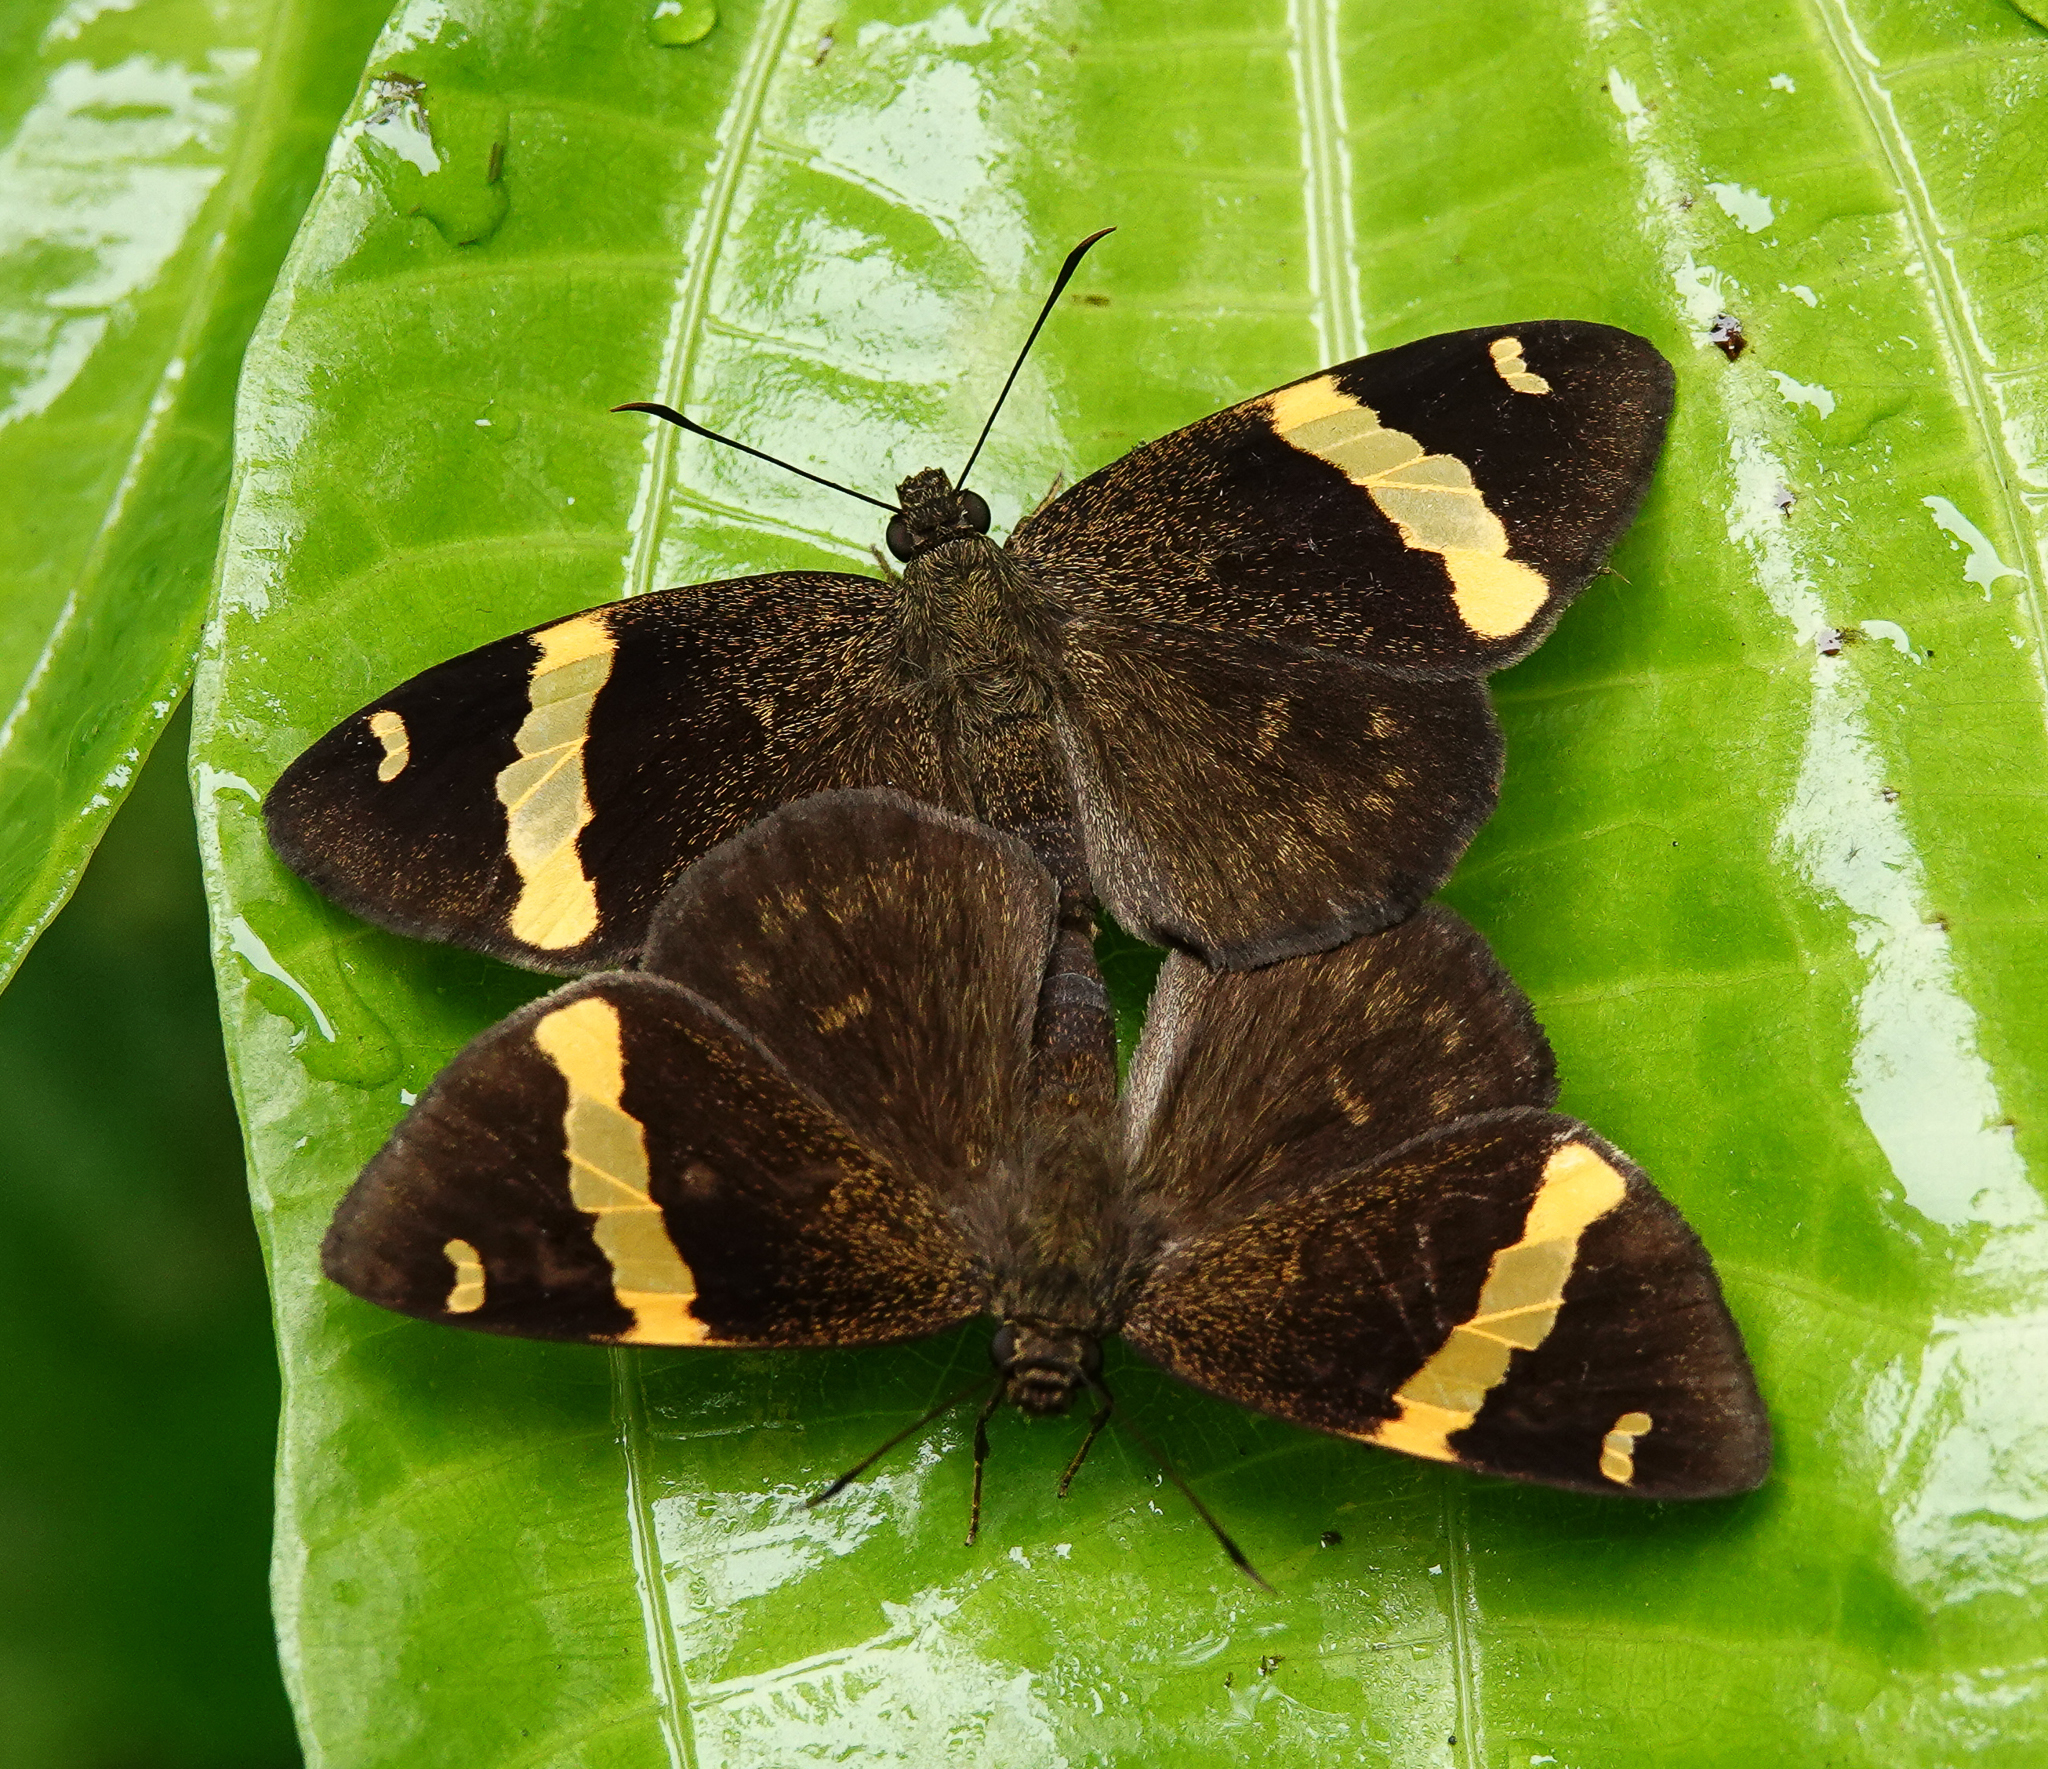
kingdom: Animalia
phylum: Arthropoda
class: Insecta
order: Lepidoptera
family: Hesperiidae
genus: Aurivittia
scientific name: Aurivittia
